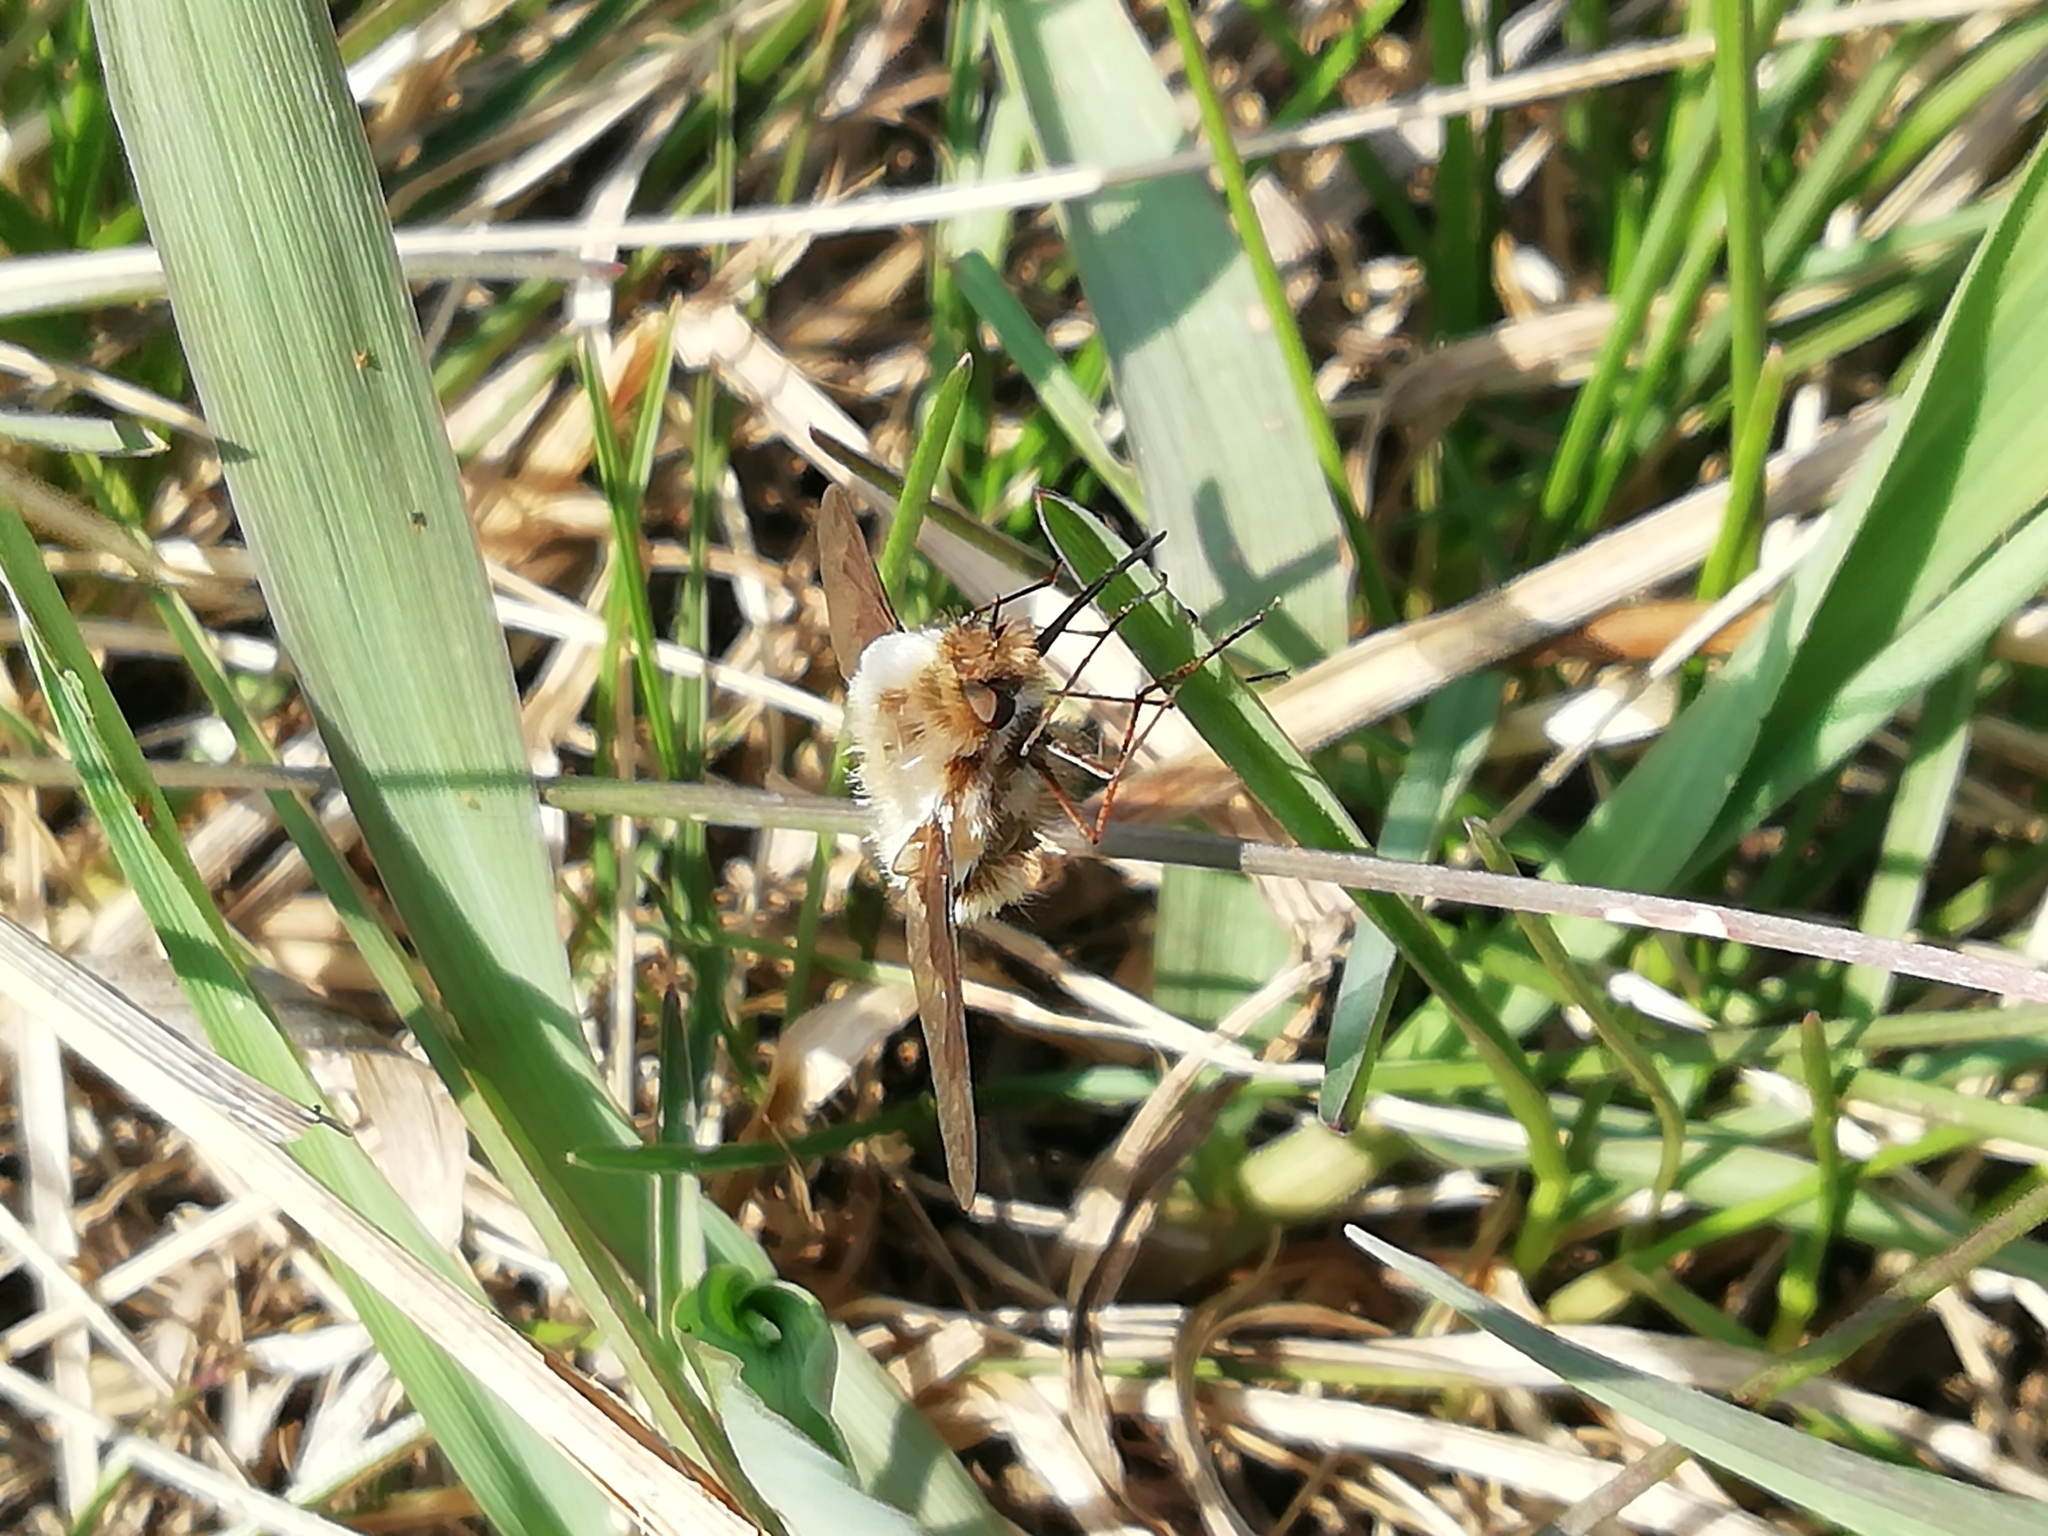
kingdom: Animalia
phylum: Arthropoda
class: Insecta
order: Diptera
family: Bombyliidae
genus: Bombylius
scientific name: Bombylius major
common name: Bee fly
